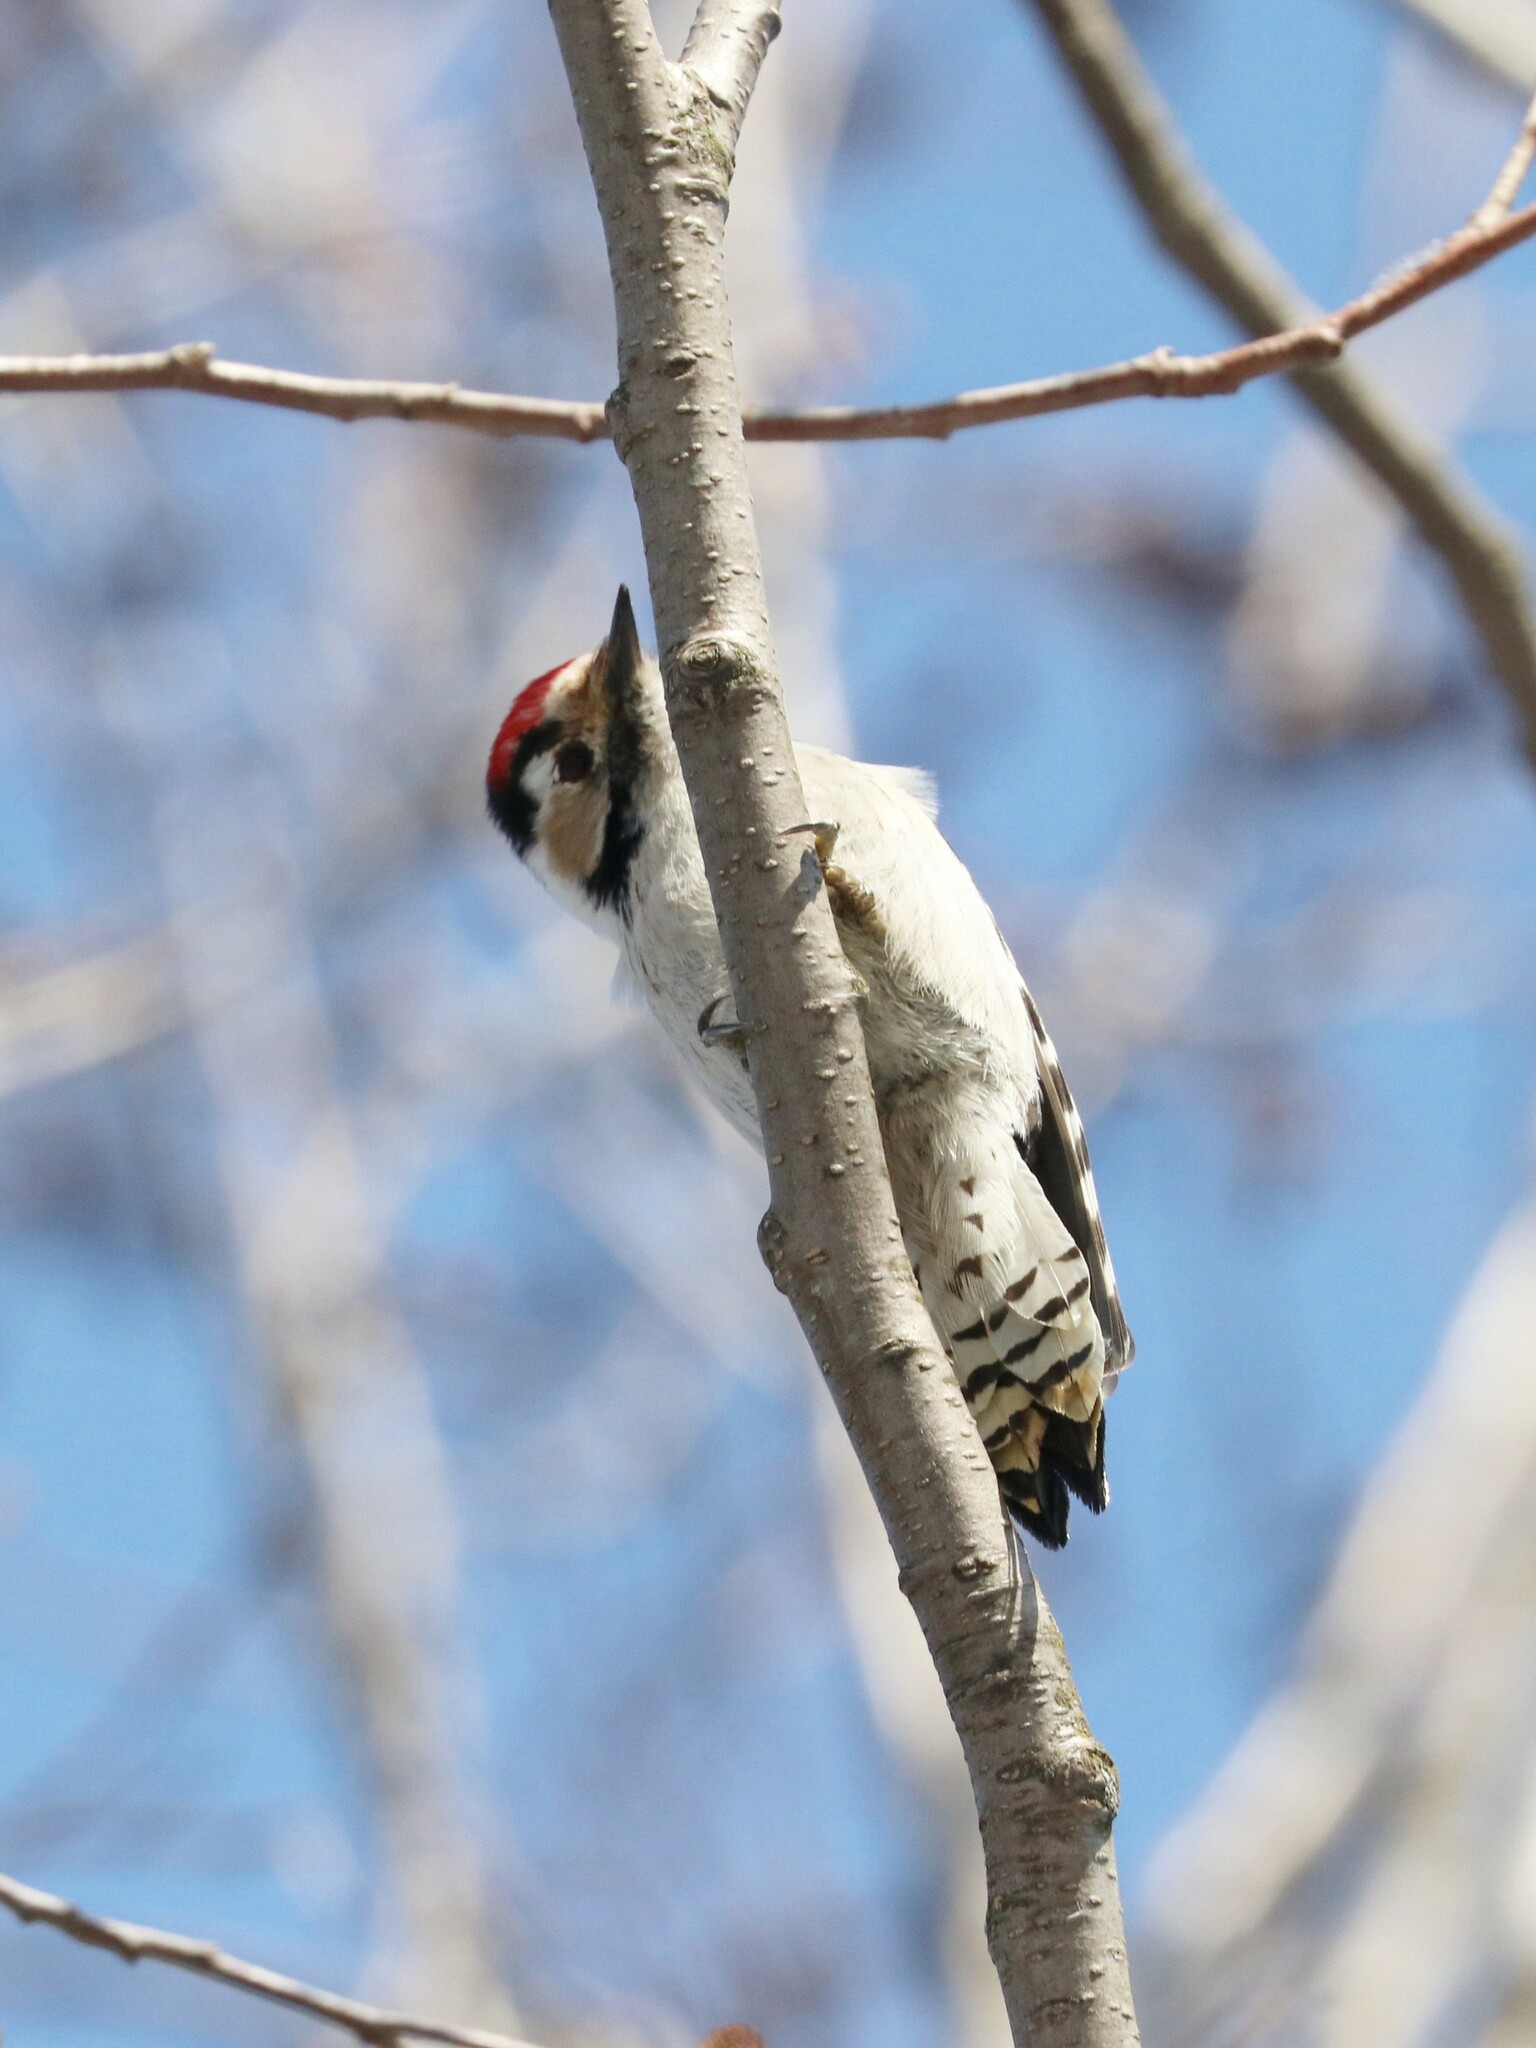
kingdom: Animalia
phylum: Chordata
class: Aves
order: Piciformes
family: Picidae
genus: Dryobates
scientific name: Dryobates minor
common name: Lesser spotted woodpecker
